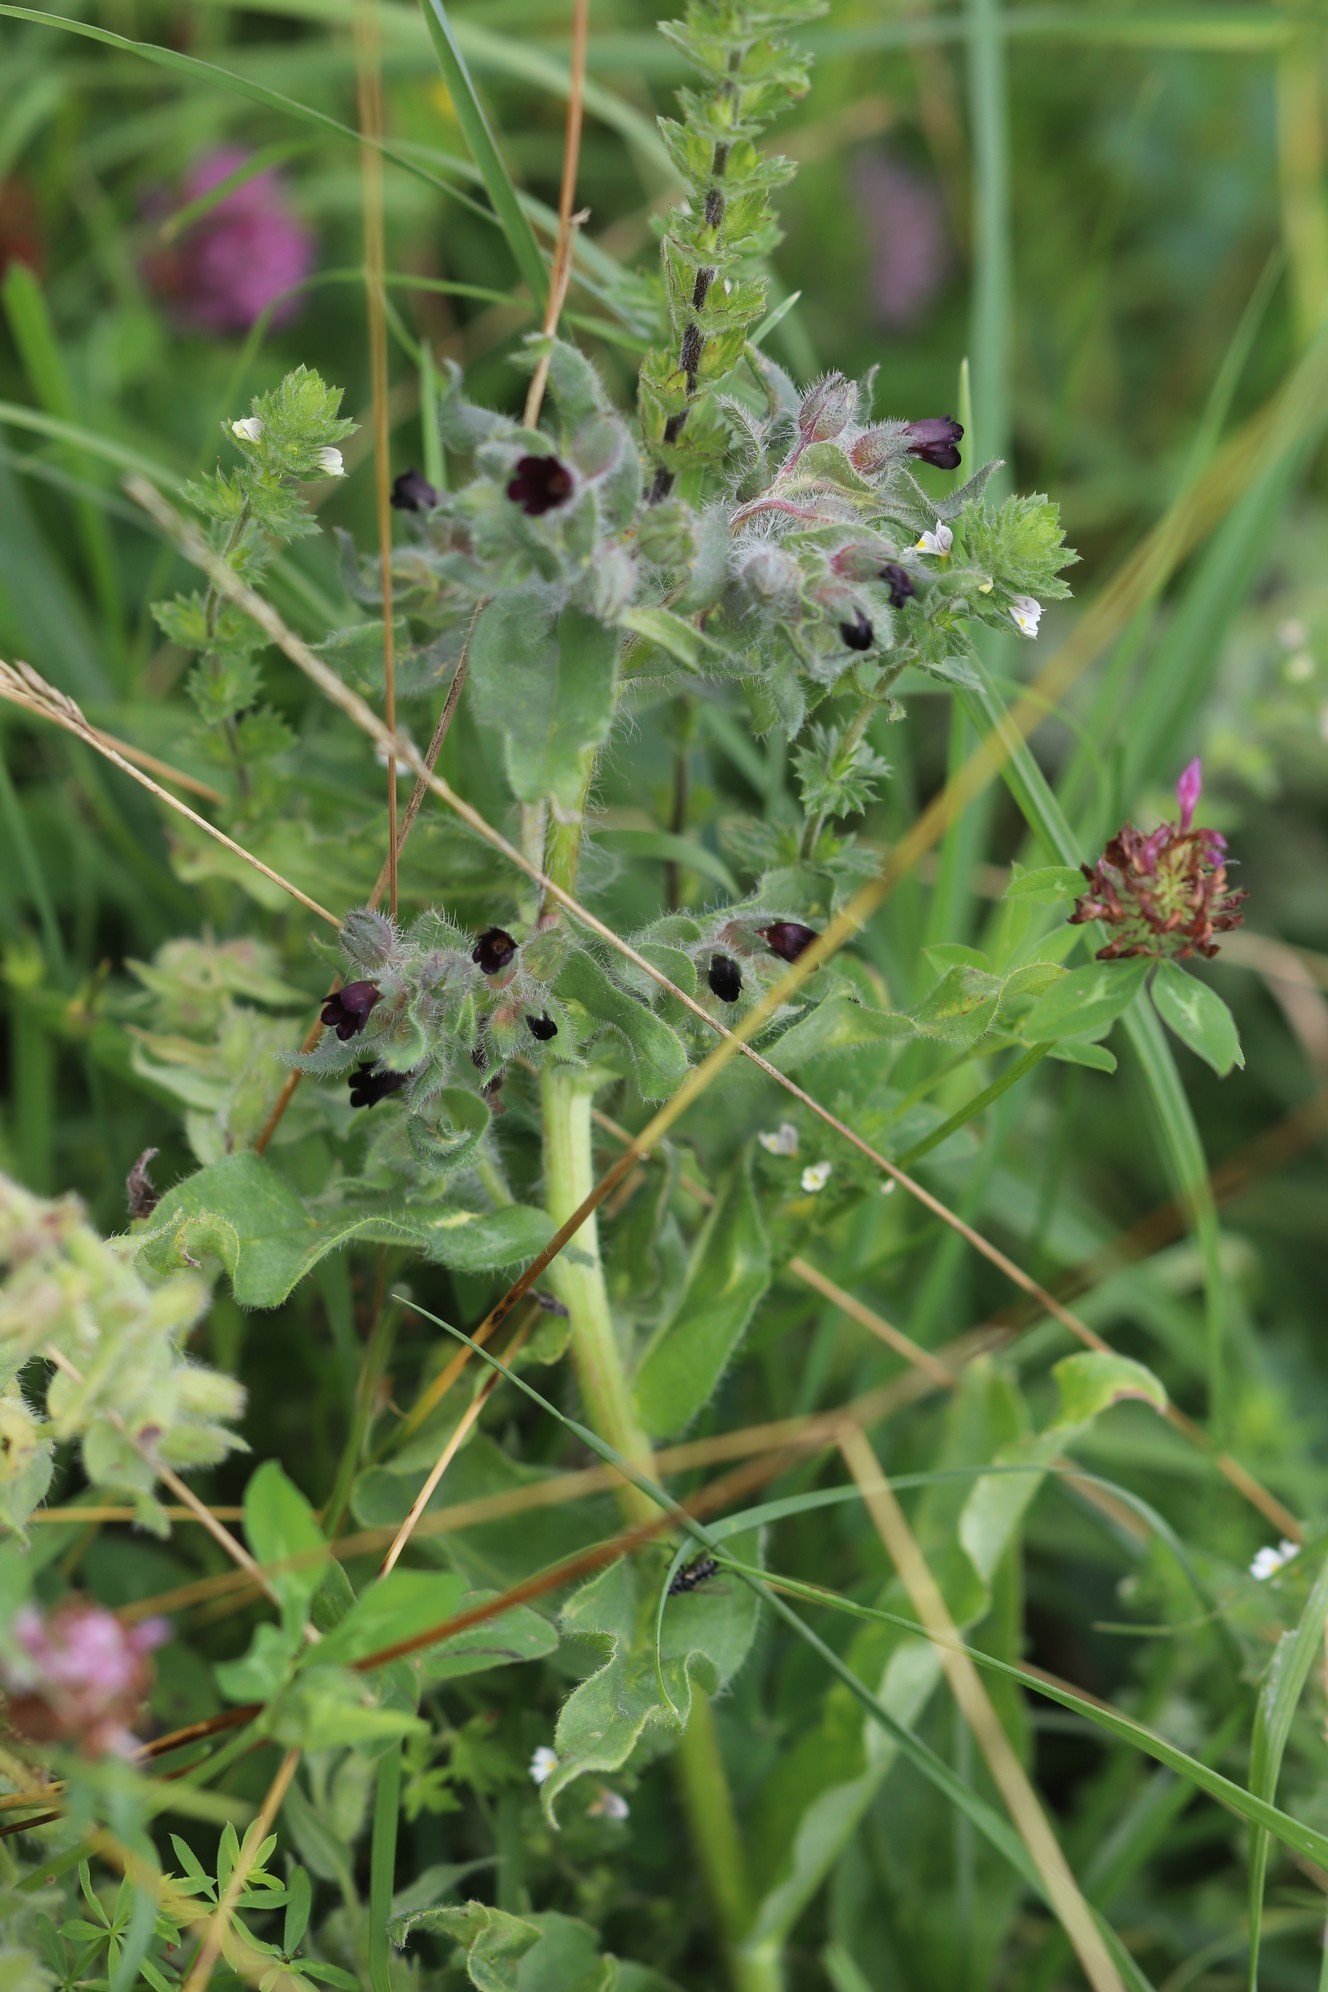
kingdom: Plantae
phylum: Tracheophyta
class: Magnoliopsida
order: Boraginales
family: Boraginaceae
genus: Nonea
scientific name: Nonea pulla
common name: Brown nonea
